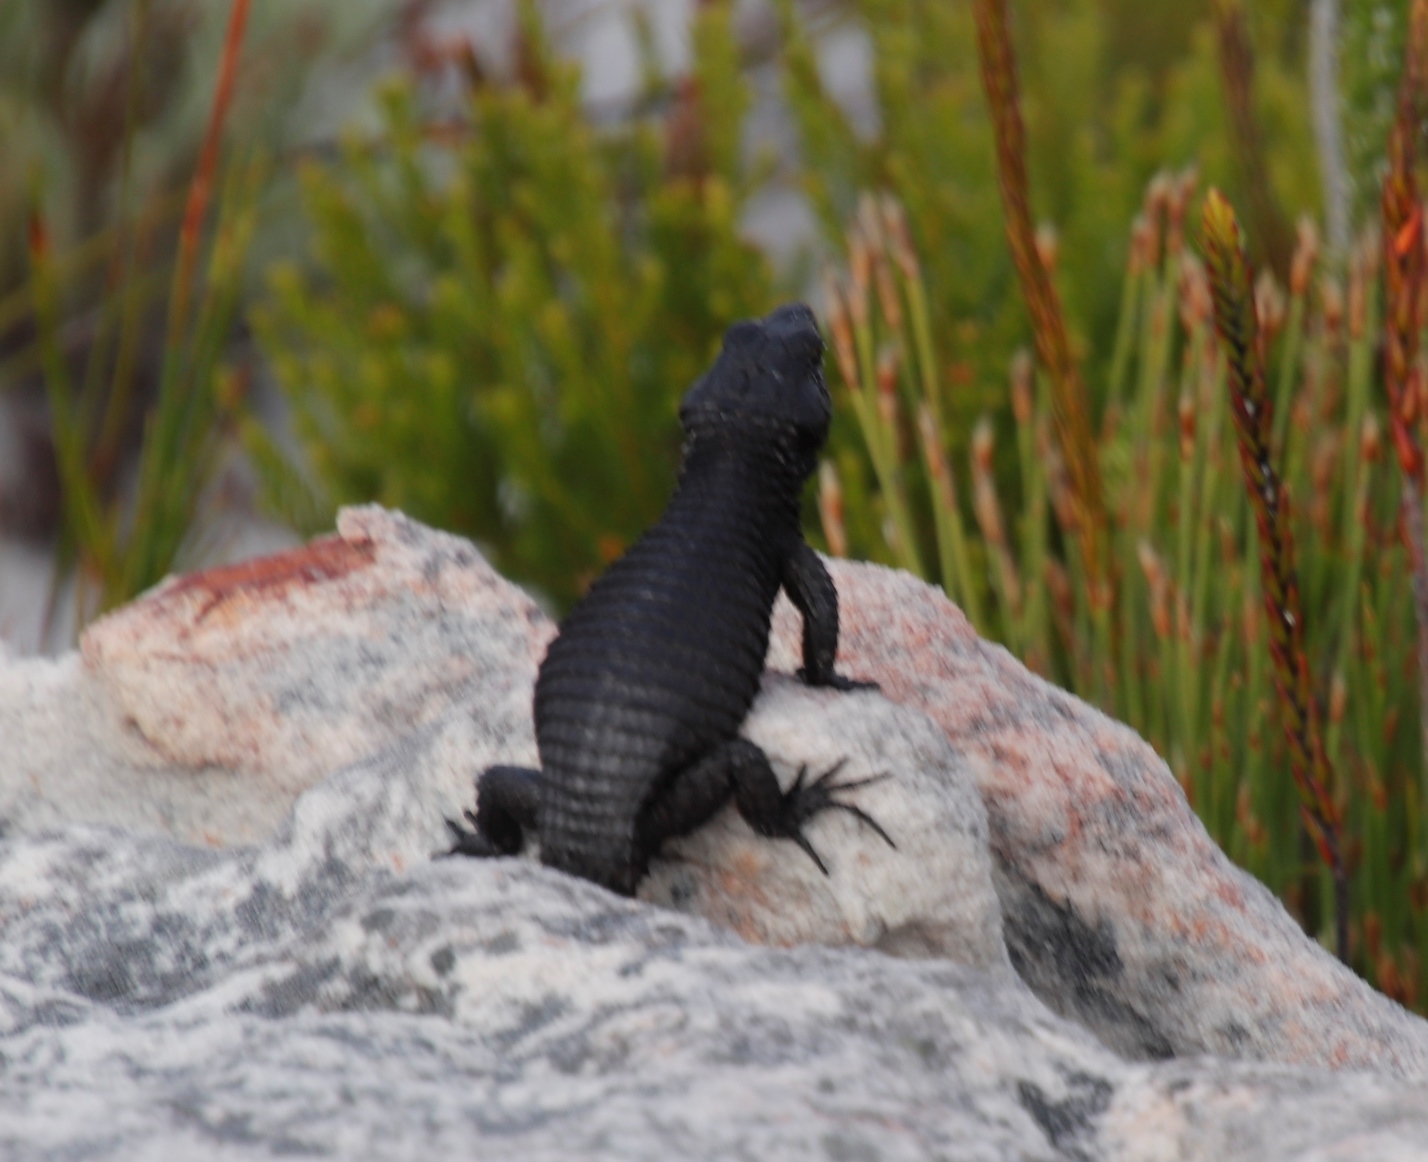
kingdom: Animalia
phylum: Chordata
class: Squamata
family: Cordylidae
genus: Cordylus
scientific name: Cordylus niger
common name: Black girdled lizard
